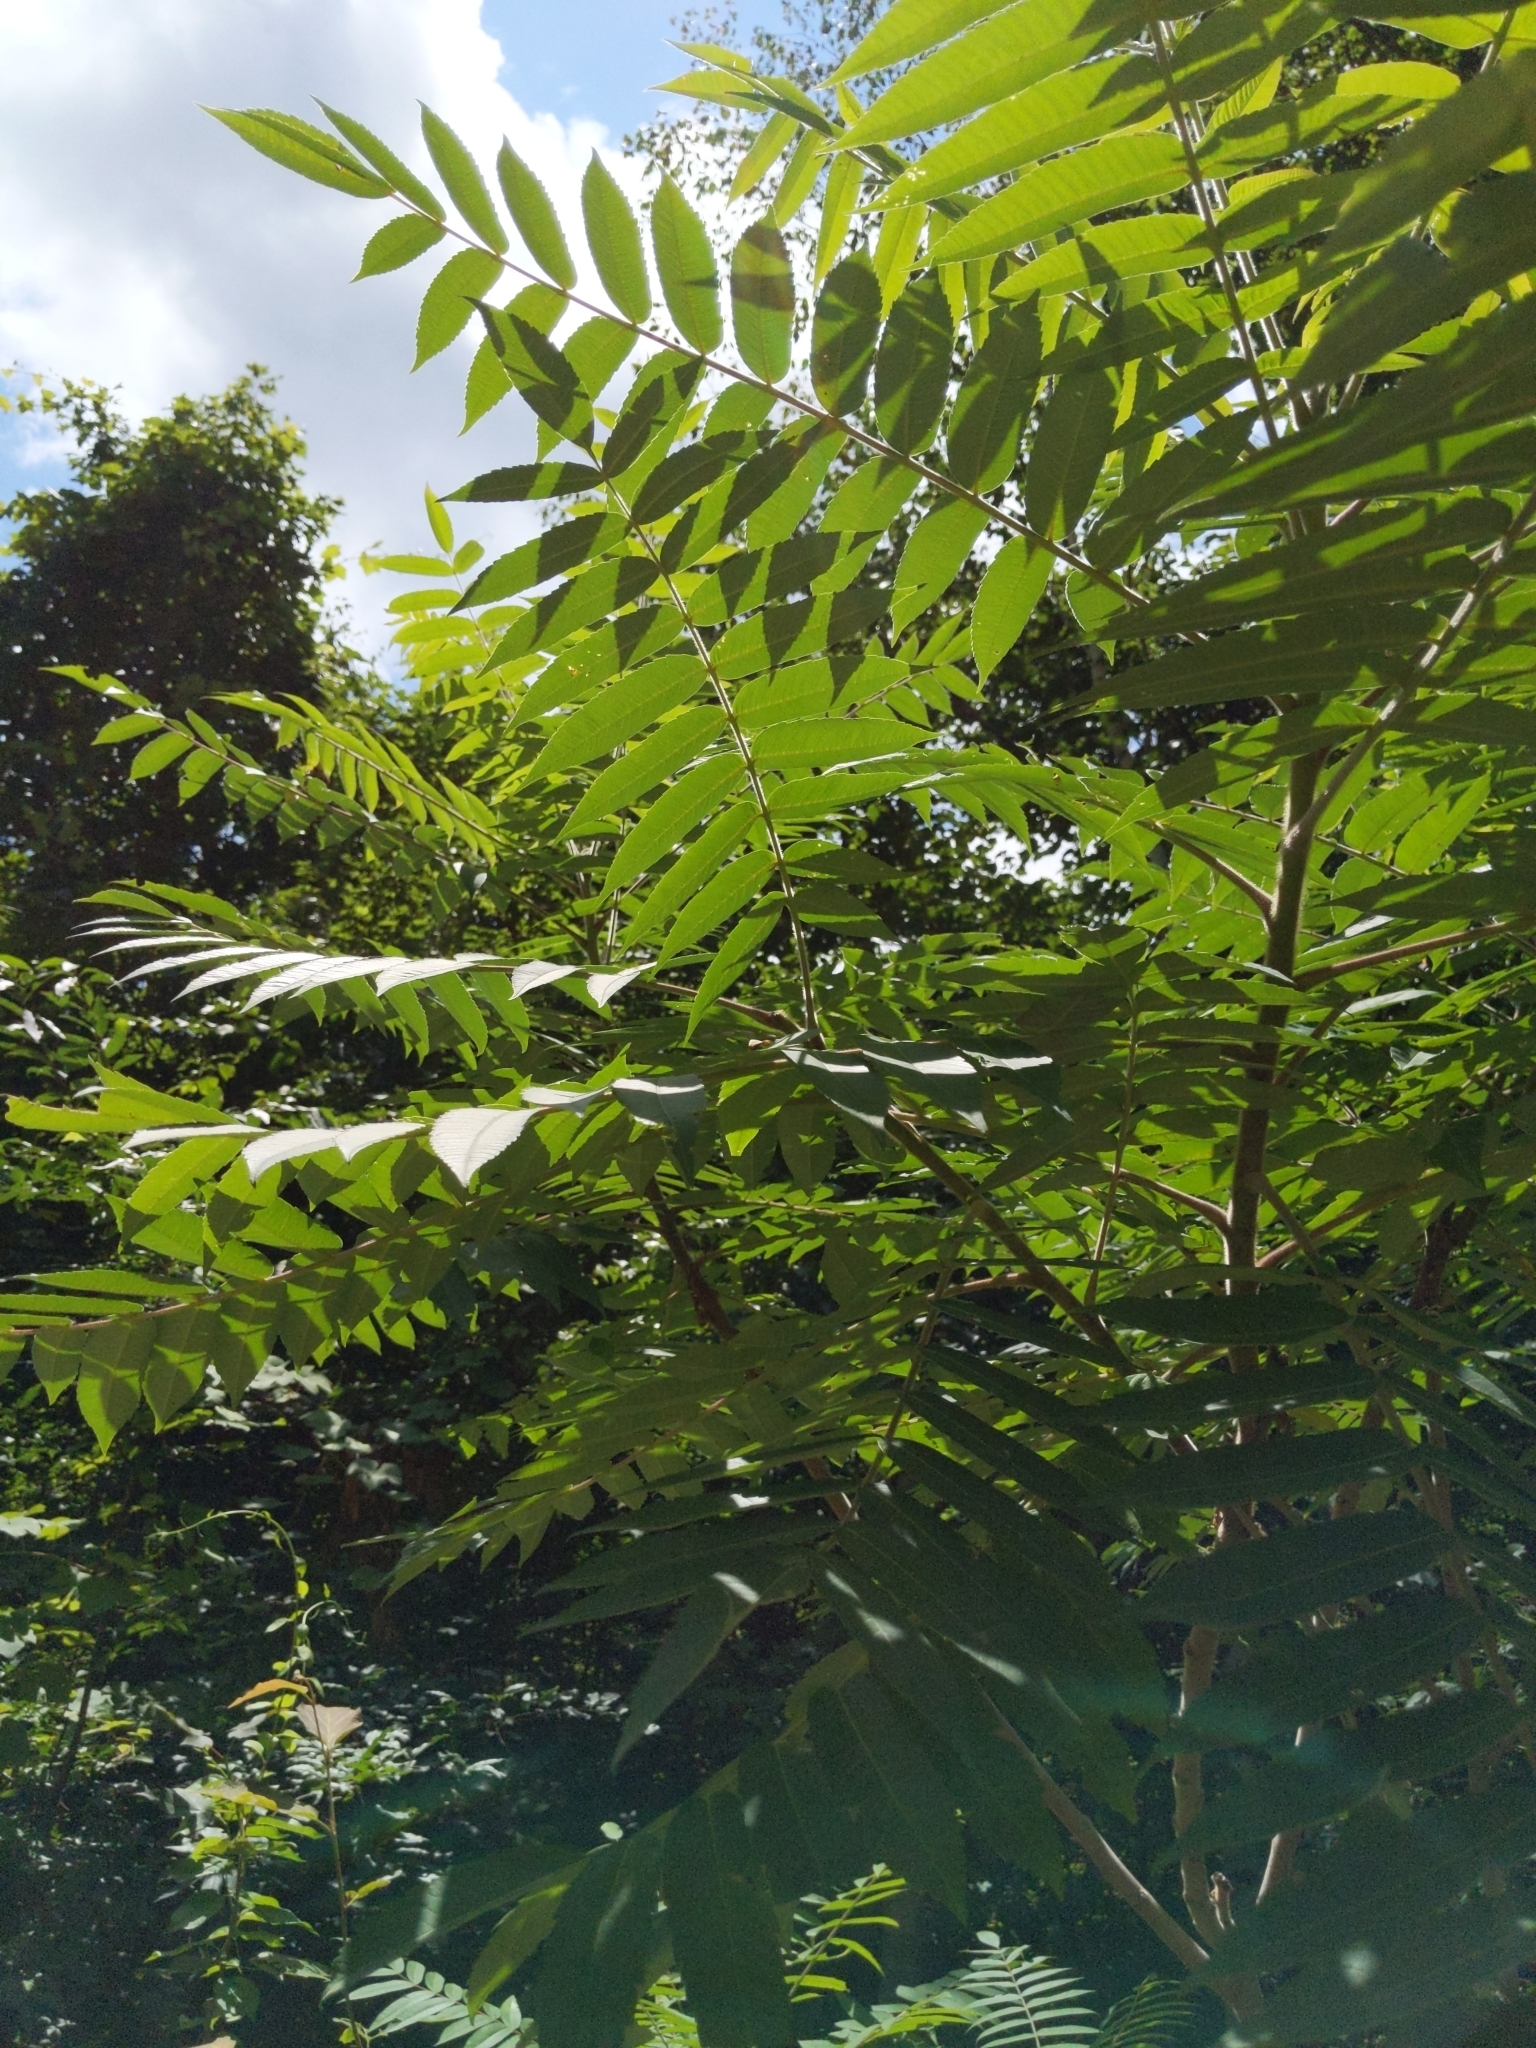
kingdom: Plantae
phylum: Tracheophyta
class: Magnoliopsida
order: Sapindales
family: Anacardiaceae
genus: Rhus
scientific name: Rhus typhina
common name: Staghorn sumac
